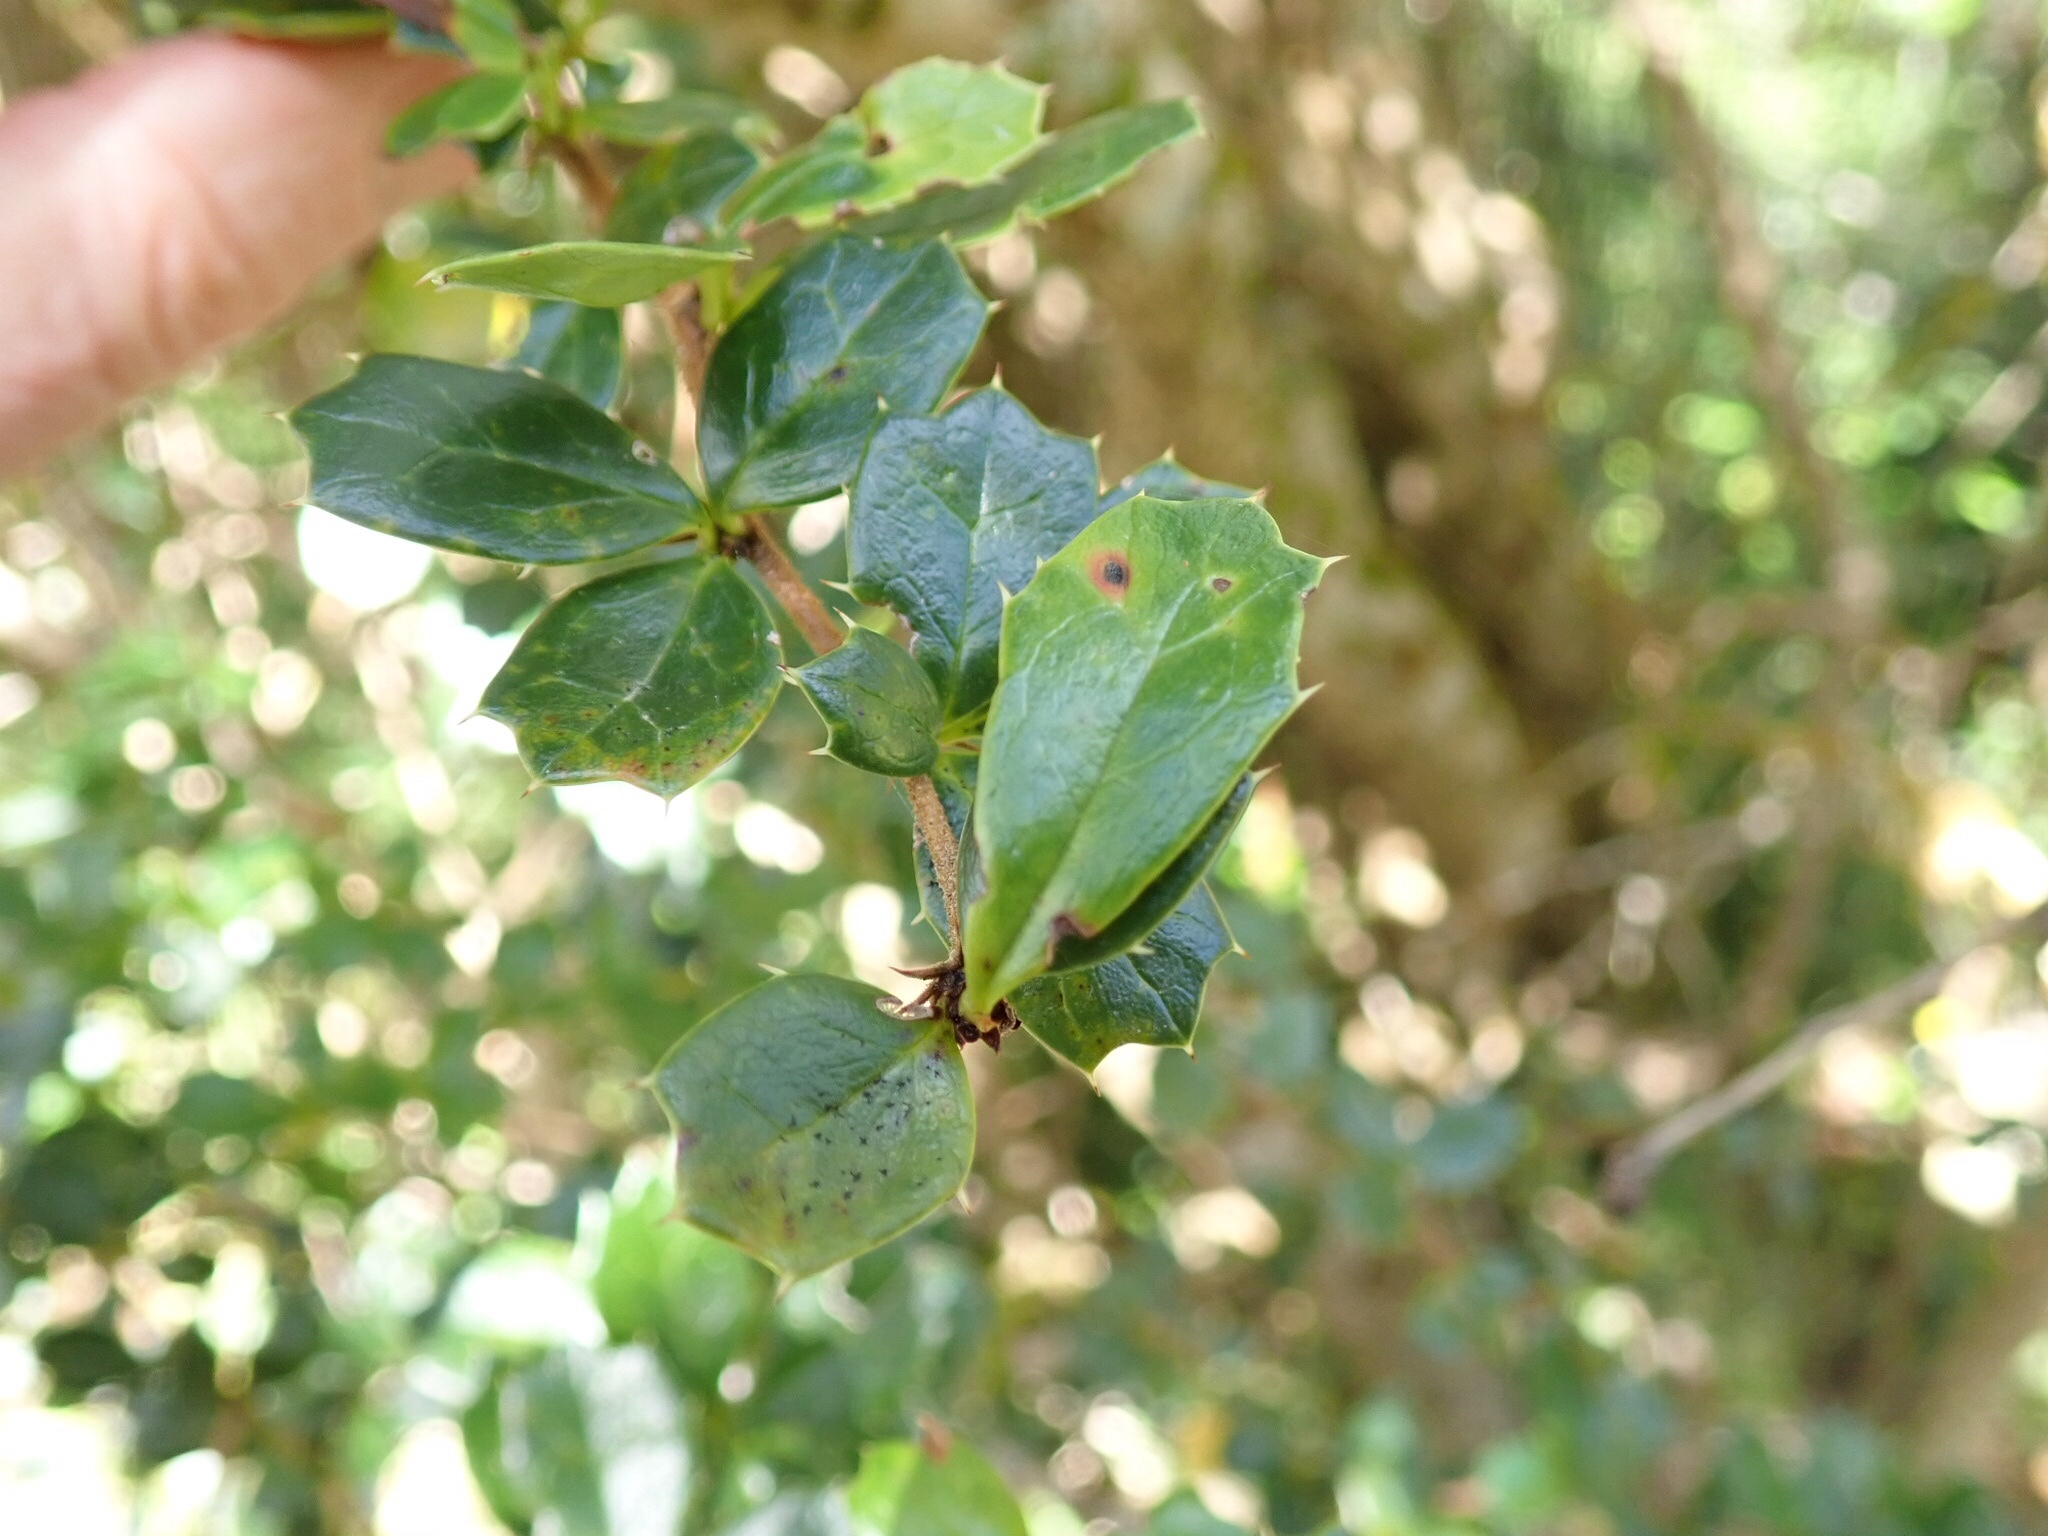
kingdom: Plantae
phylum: Tracheophyta
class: Magnoliopsida
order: Ranunculales
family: Berberidaceae
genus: Berberis
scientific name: Berberis darwinii
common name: Darwin's barberry
